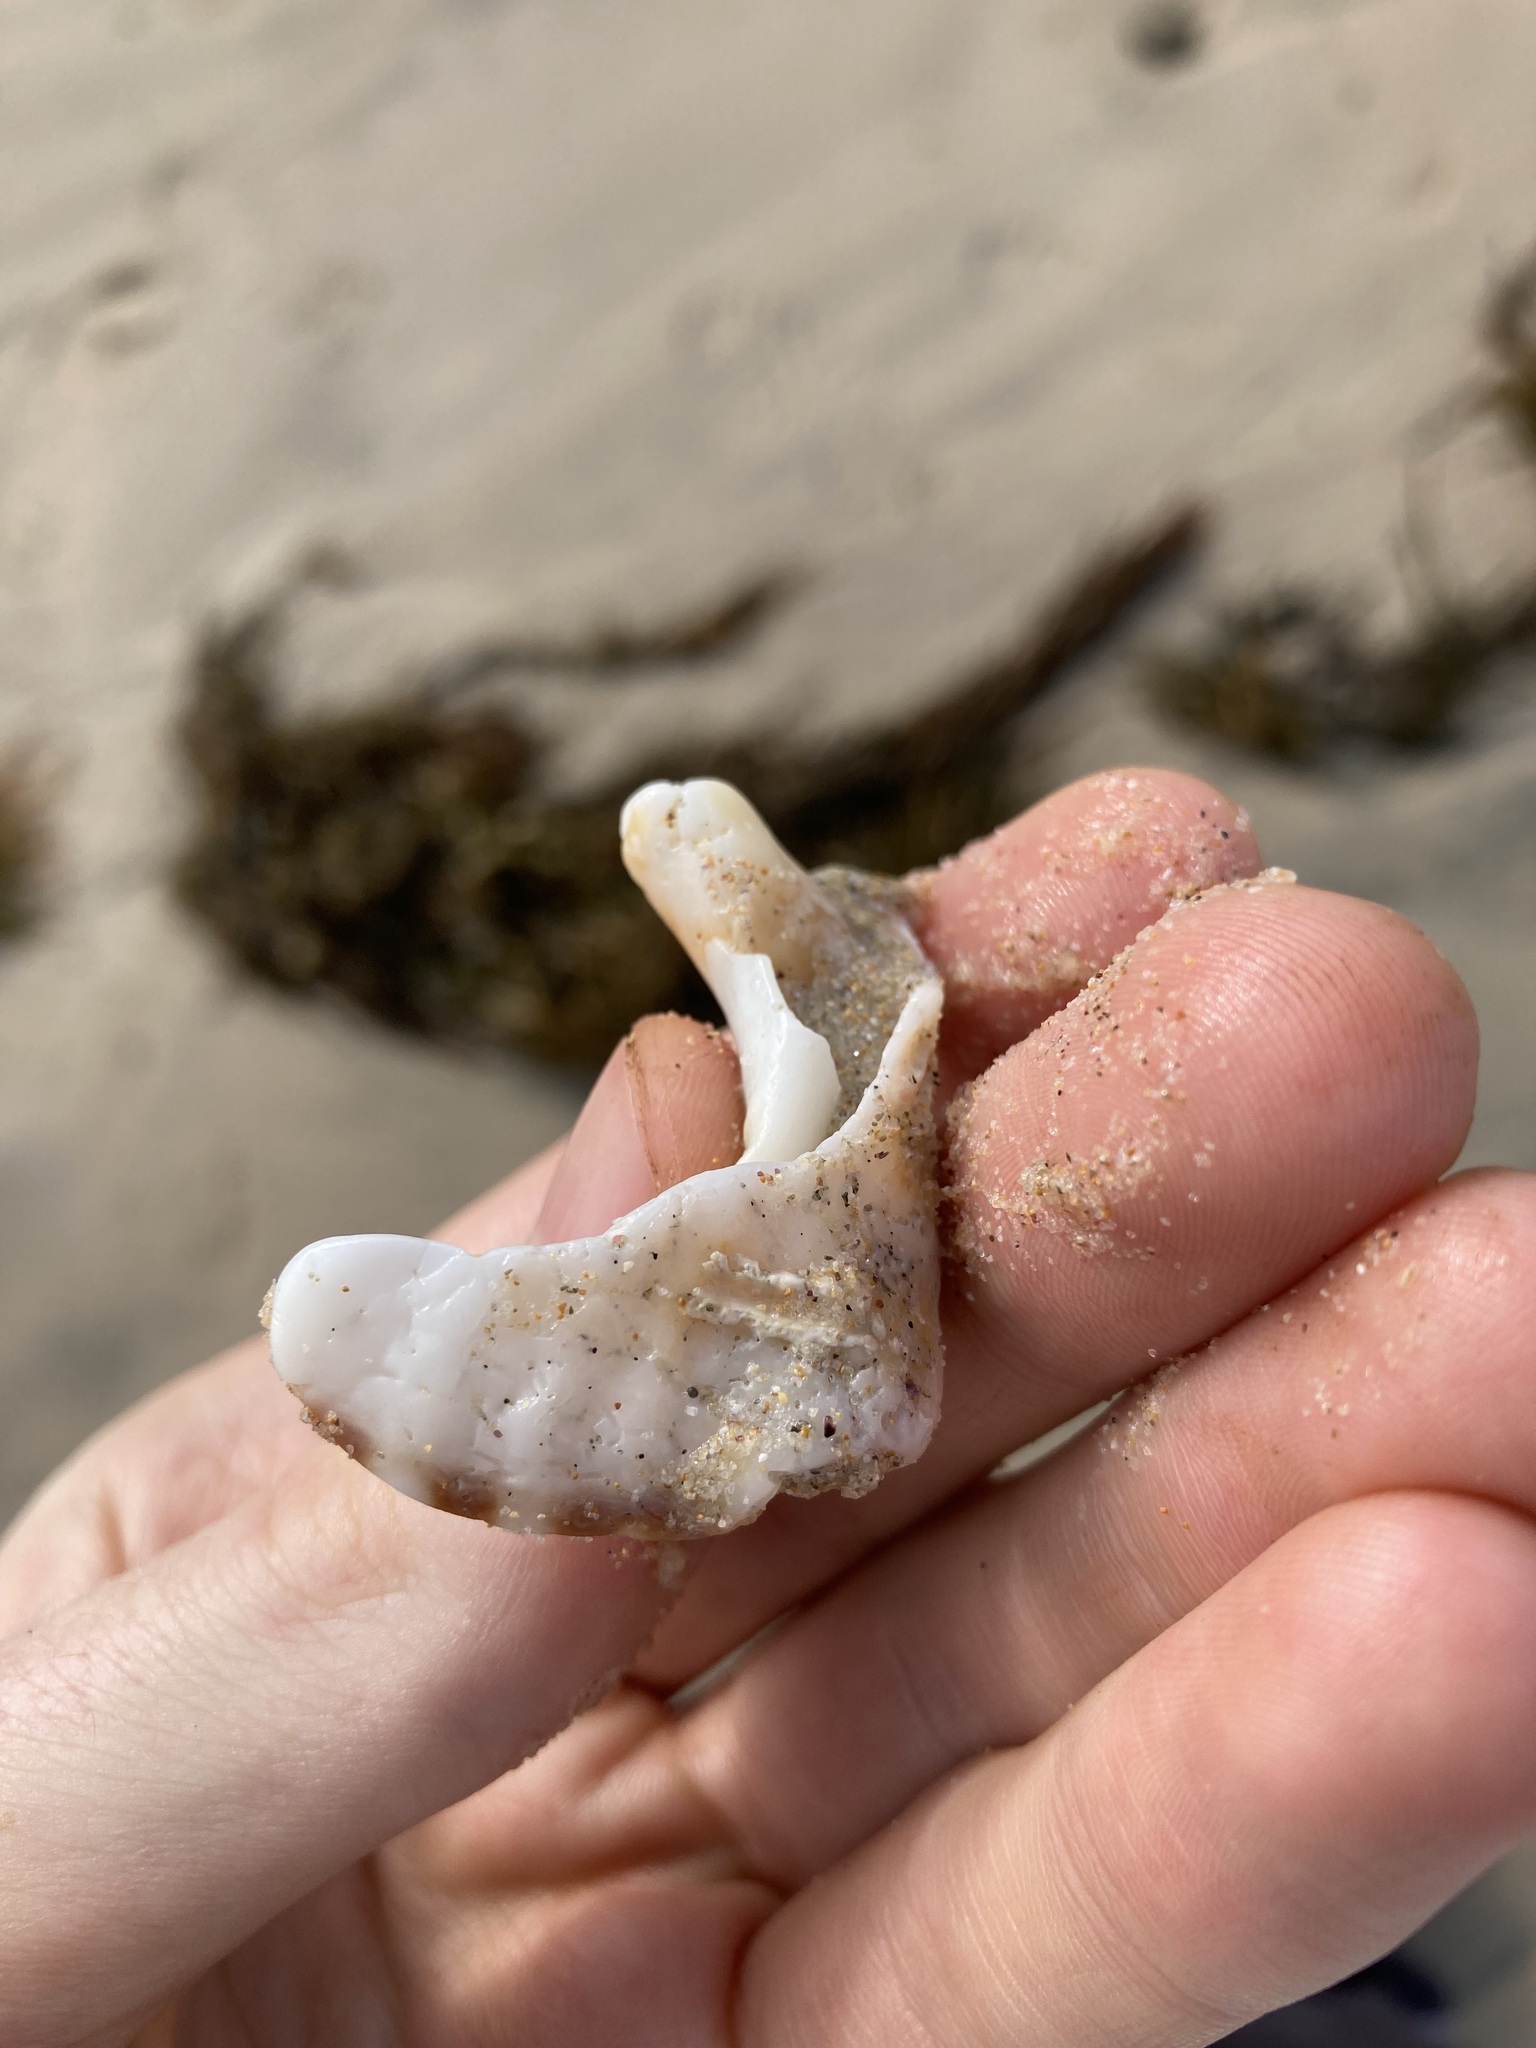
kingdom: Animalia
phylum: Mollusca
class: Gastropoda
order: Littorinimorpha
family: Charoniidae
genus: Charonia
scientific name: Charonia lampas
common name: Knobbed triton
